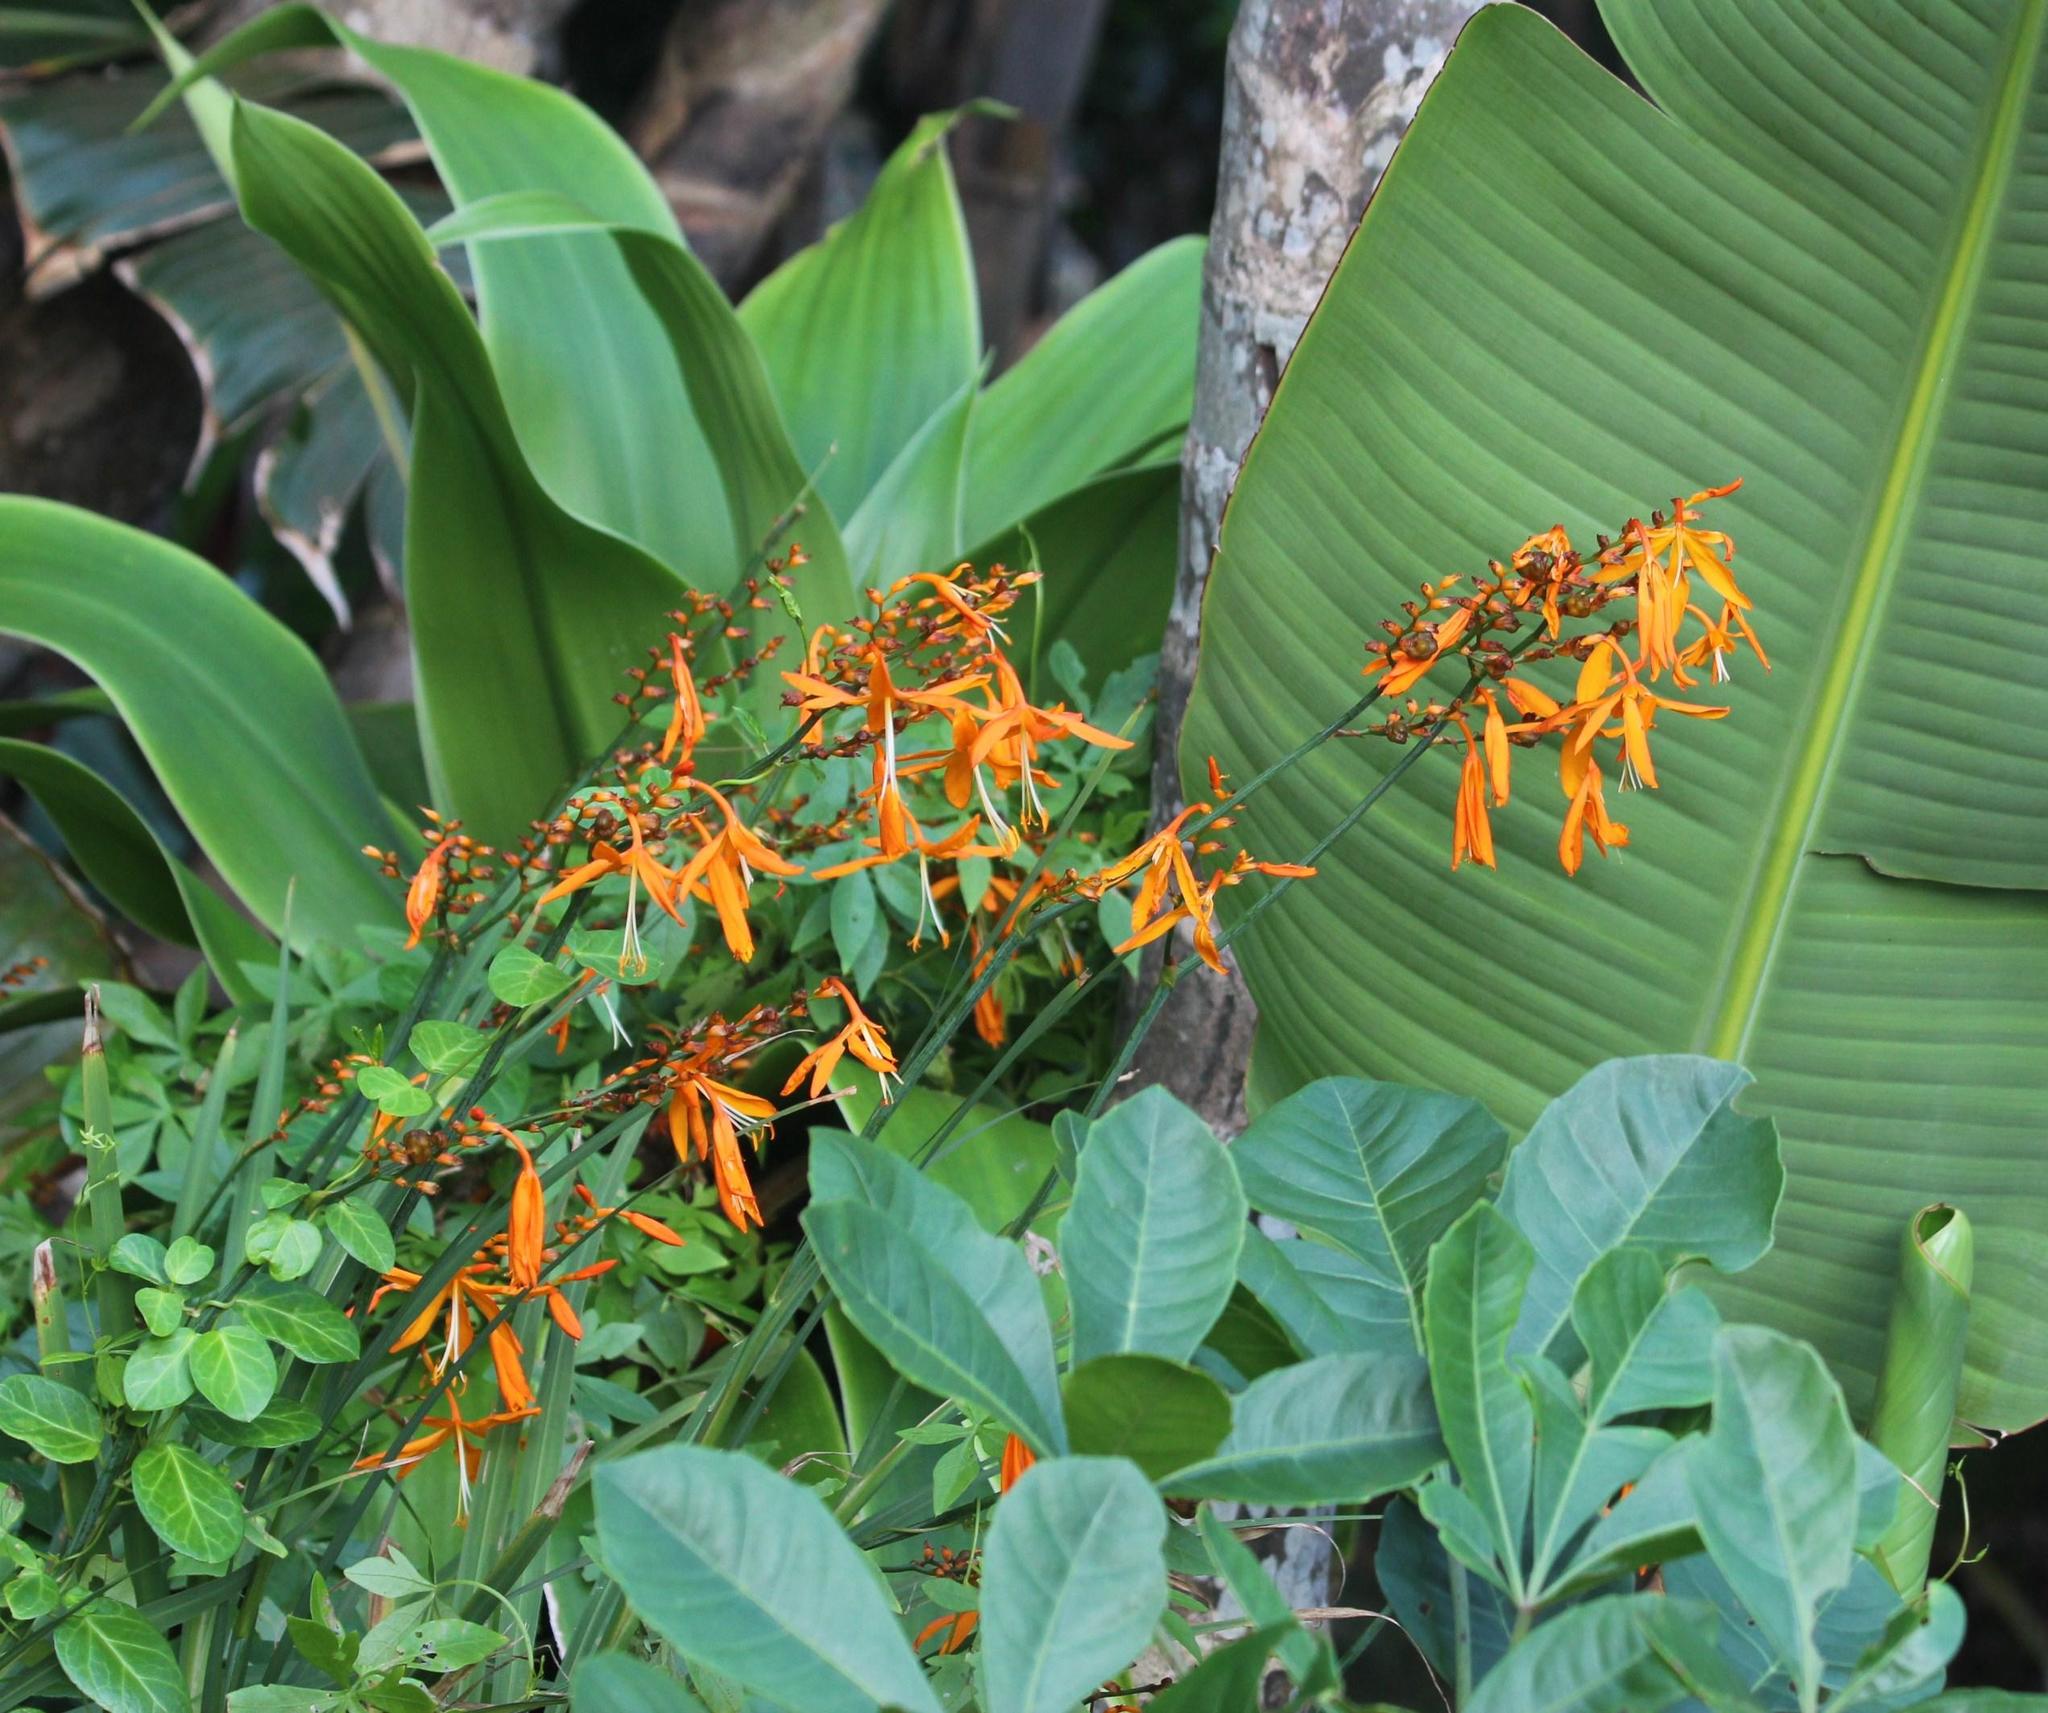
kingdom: Plantae
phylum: Tracheophyta
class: Liliopsida
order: Asparagales
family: Iridaceae
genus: Crocosmia
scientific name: Crocosmia aurea
